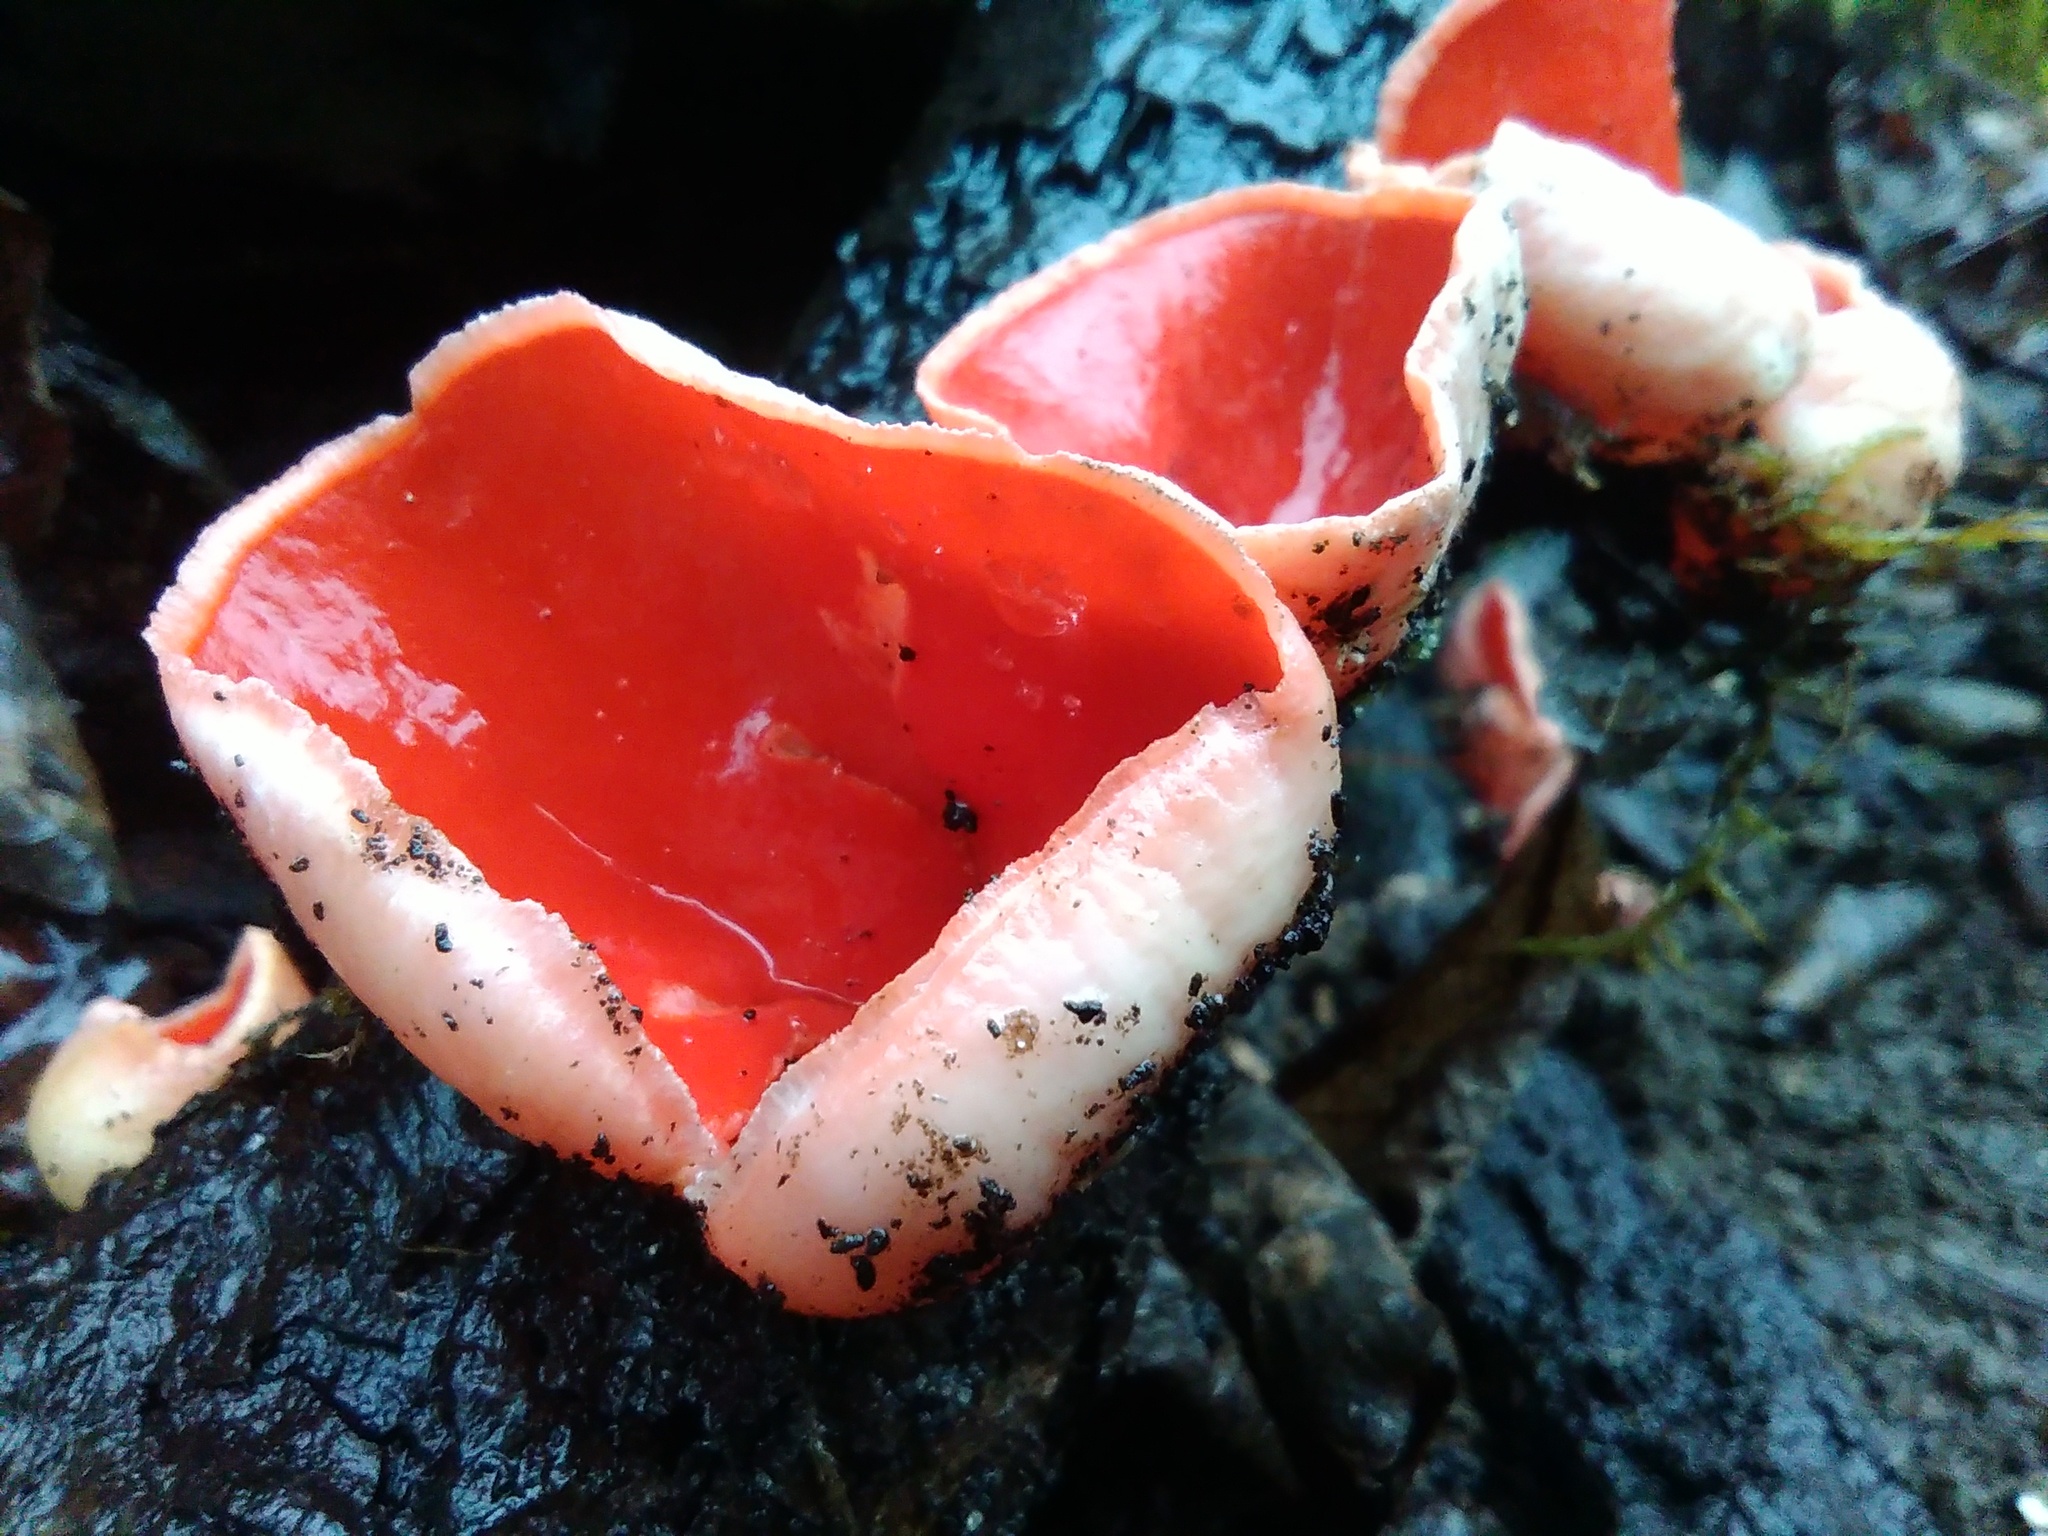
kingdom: Fungi
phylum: Ascomycota
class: Pezizomycetes
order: Pezizales
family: Sarcoscyphaceae
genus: Sarcoscypha
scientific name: Sarcoscypha austriaca
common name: Scarlet elfcup
